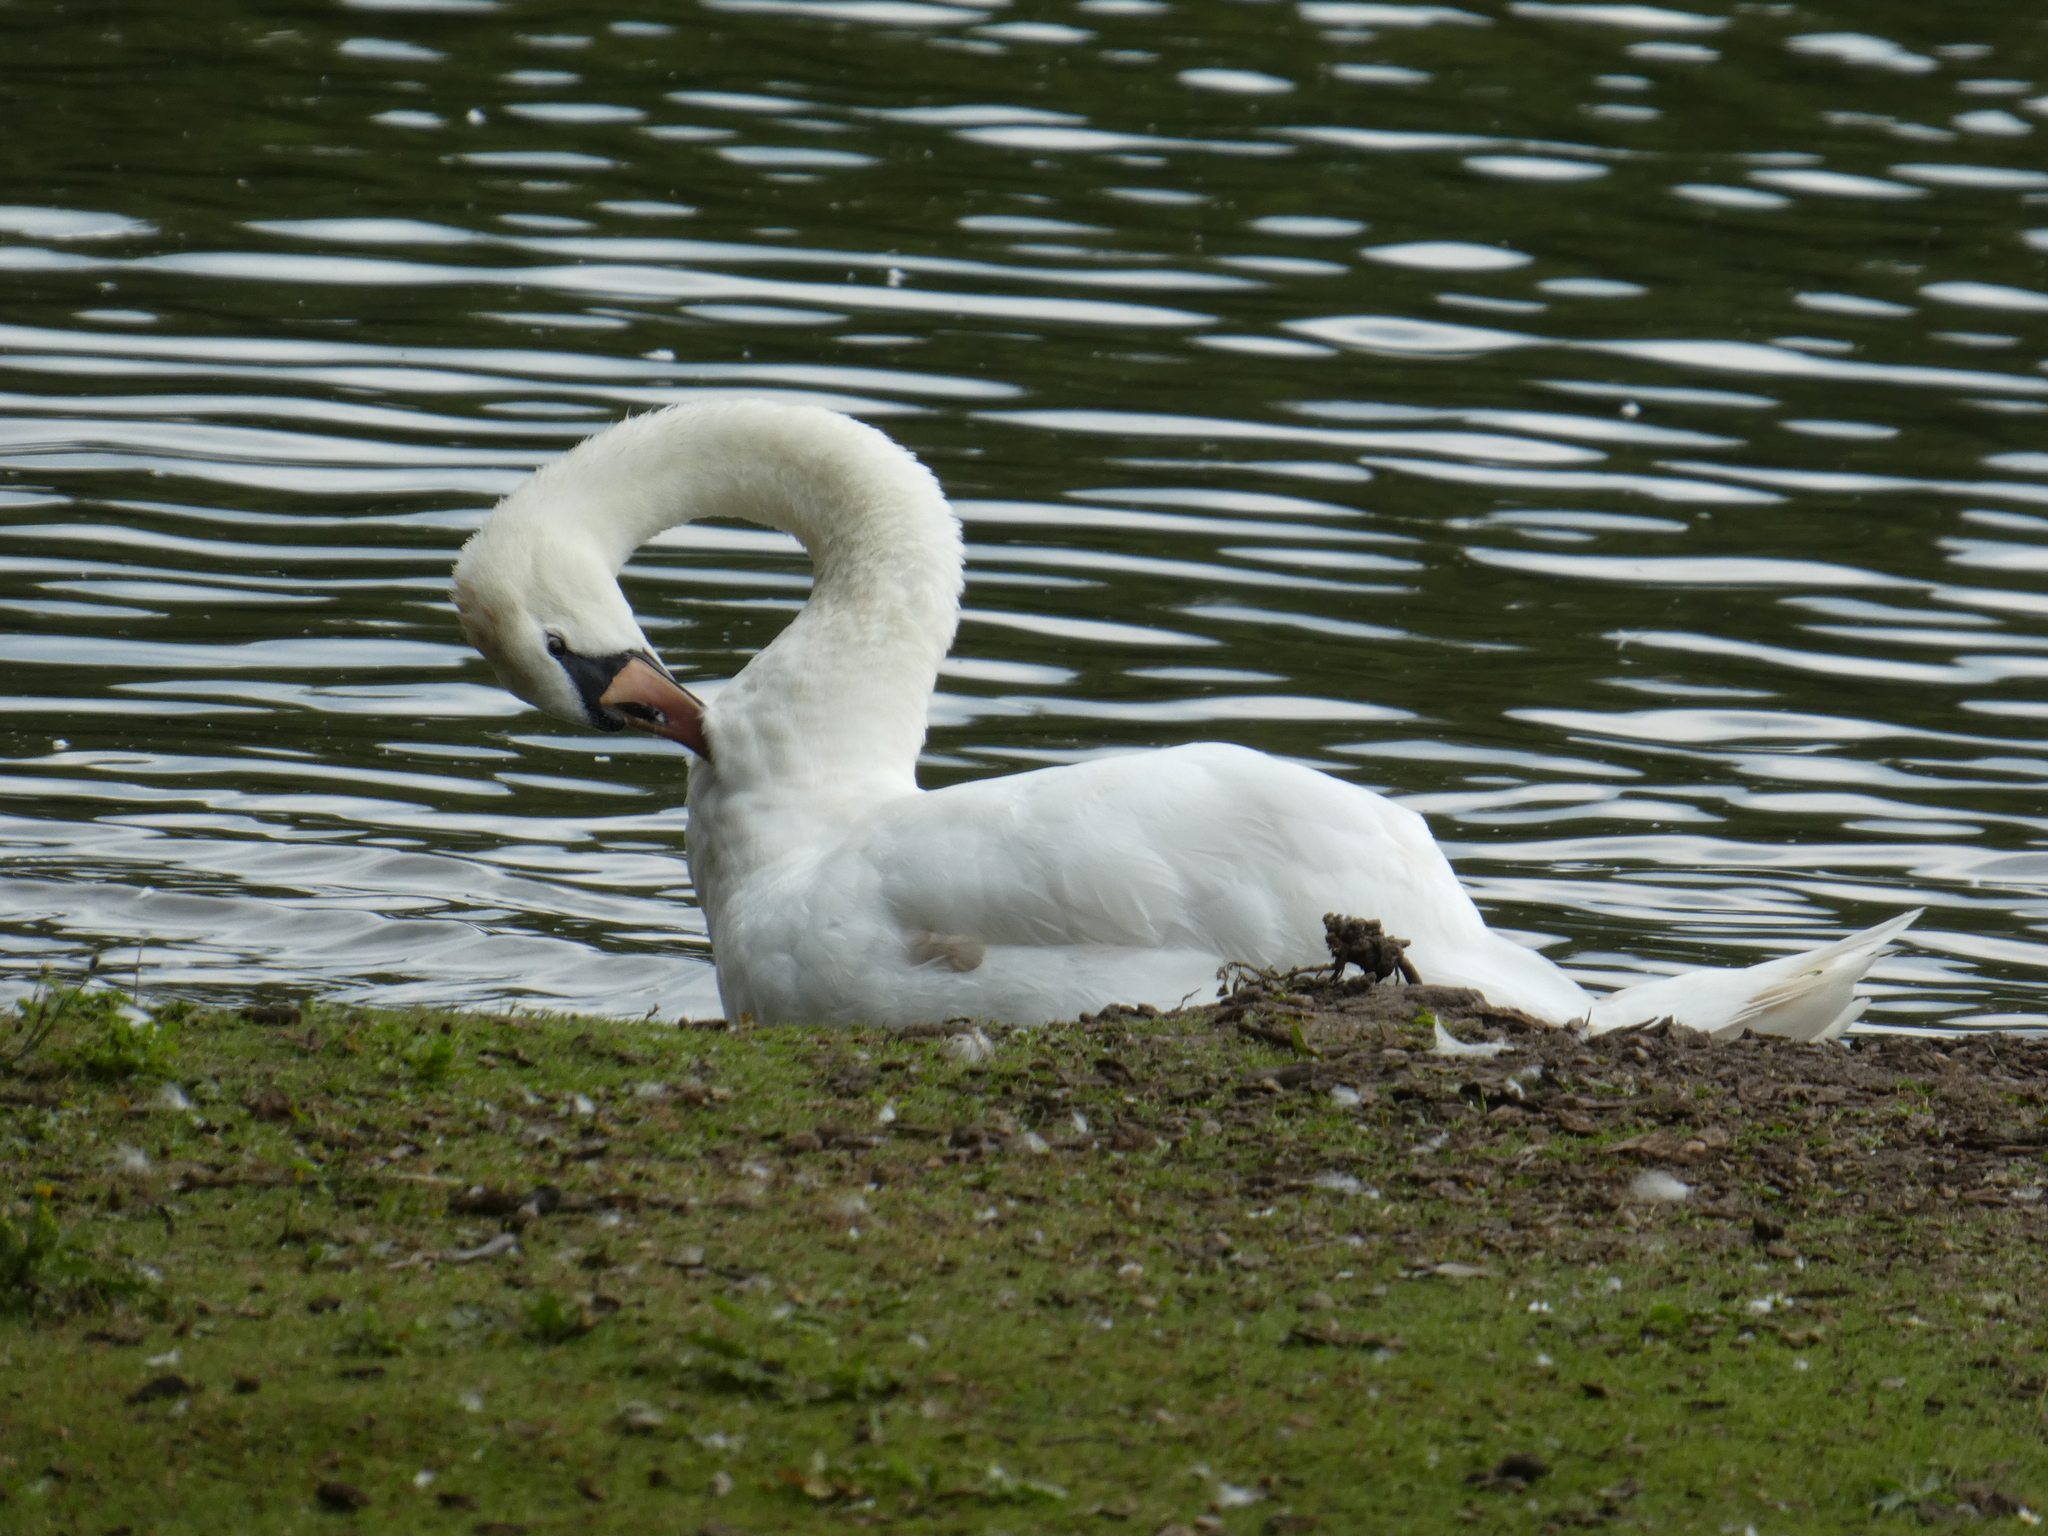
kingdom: Animalia
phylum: Chordata
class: Aves
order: Anseriformes
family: Anatidae
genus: Cygnus
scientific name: Cygnus olor
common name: Mute swan
